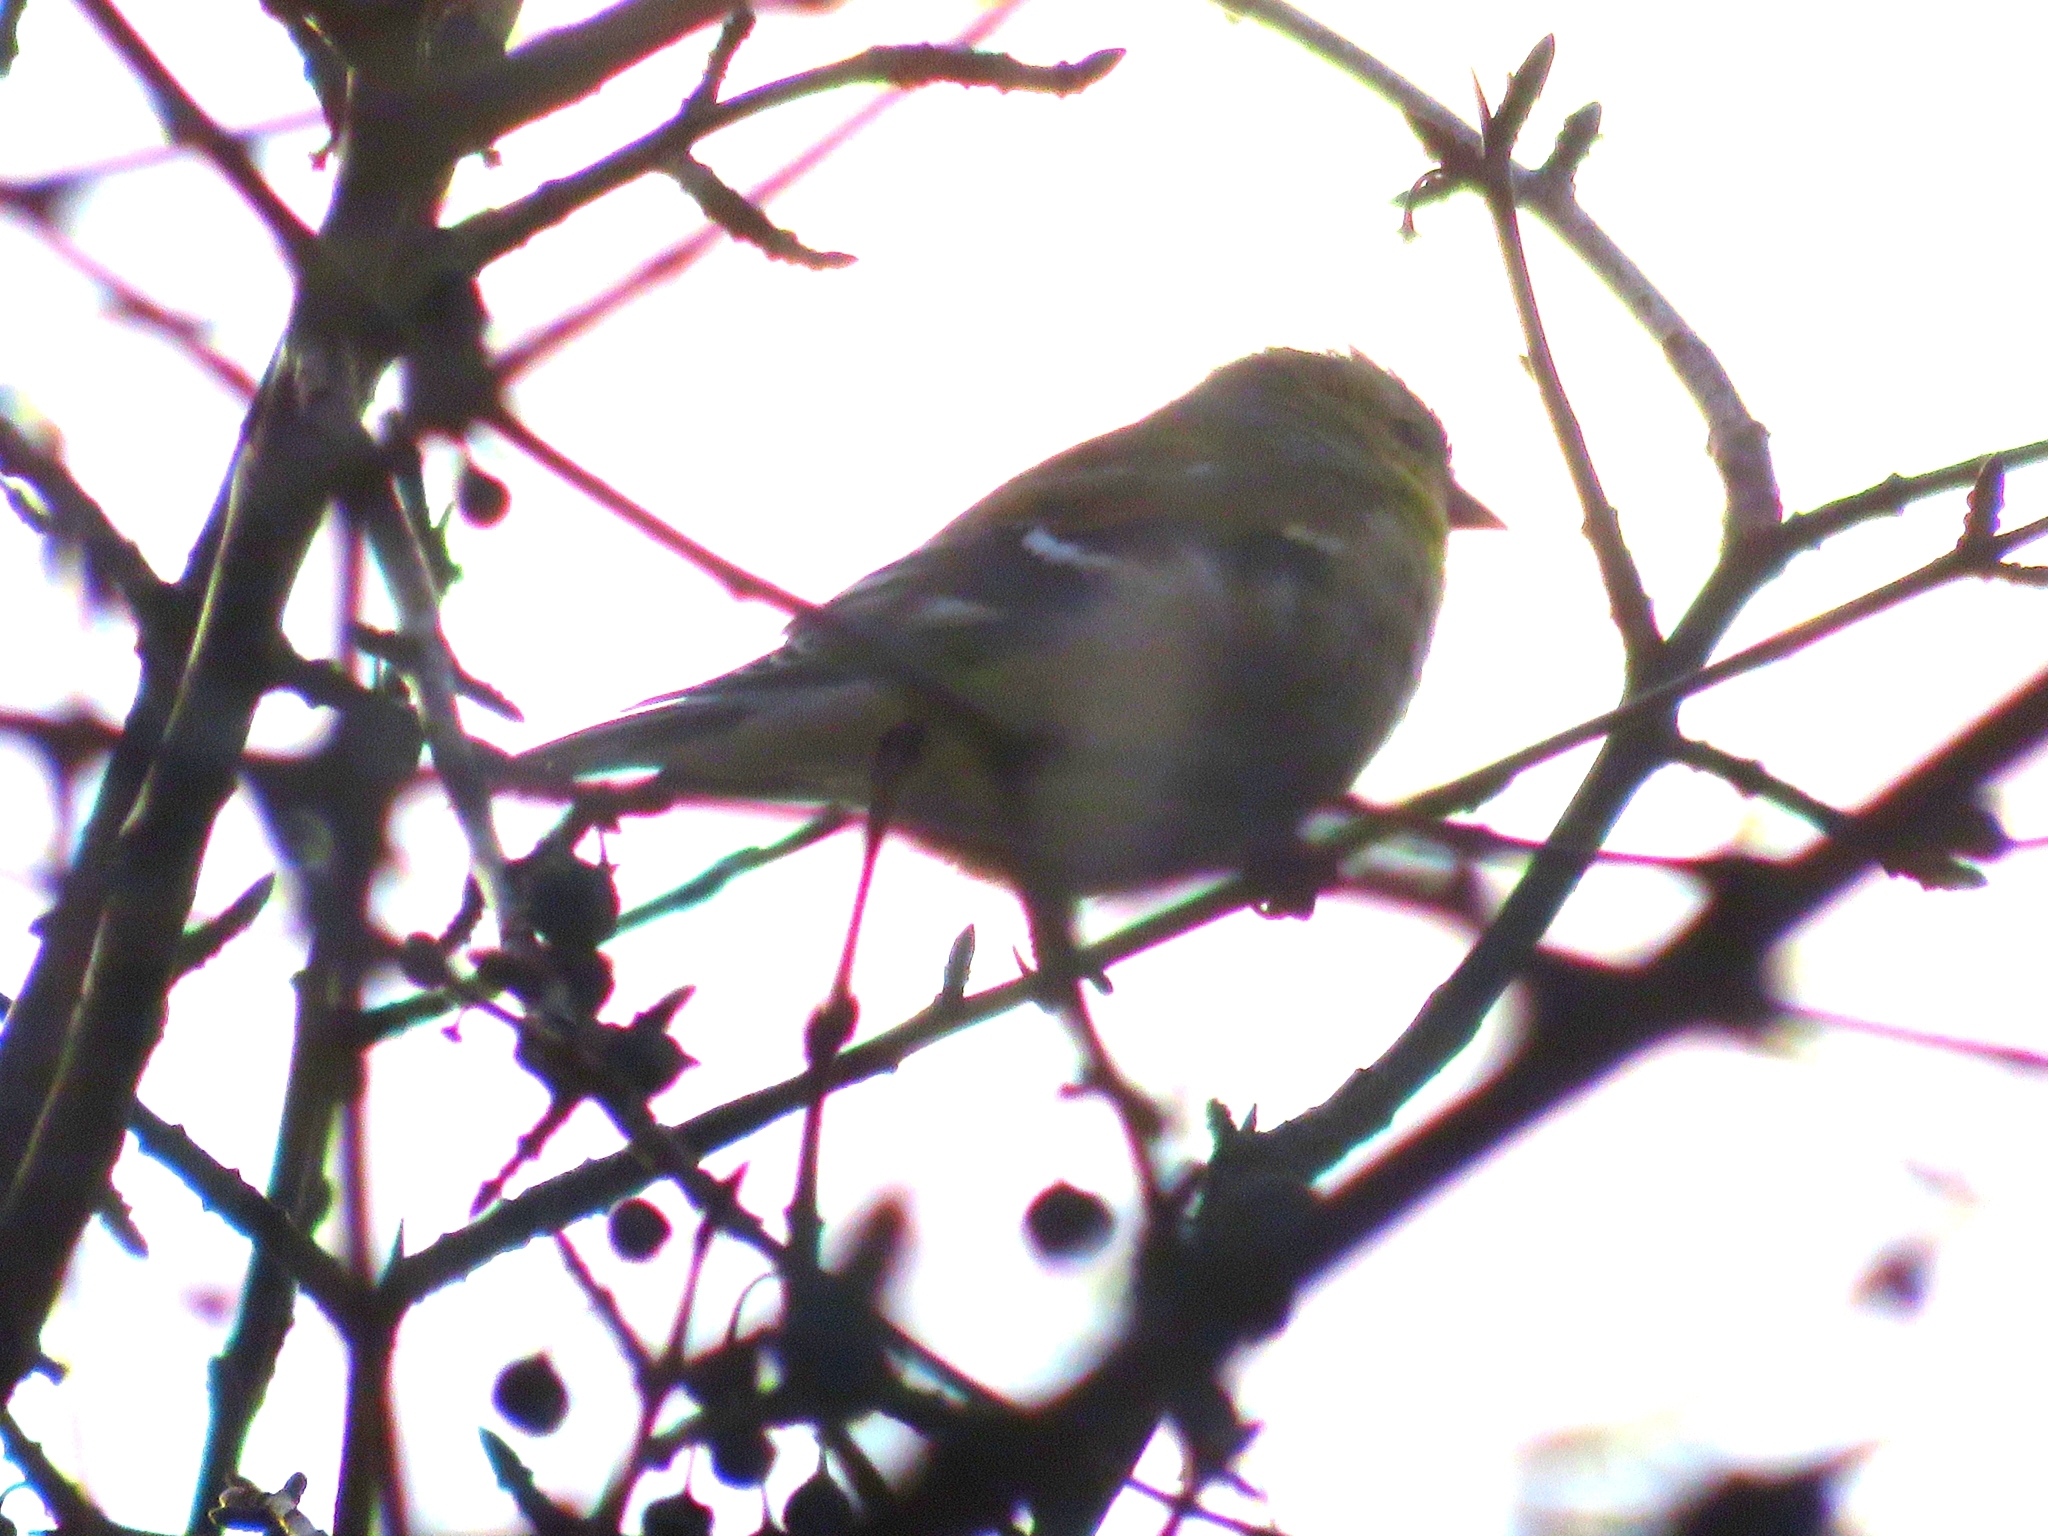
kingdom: Animalia
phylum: Chordata
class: Aves
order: Passeriformes
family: Fringillidae
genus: Spinus
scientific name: Spinus tristis
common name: American goldfinch
